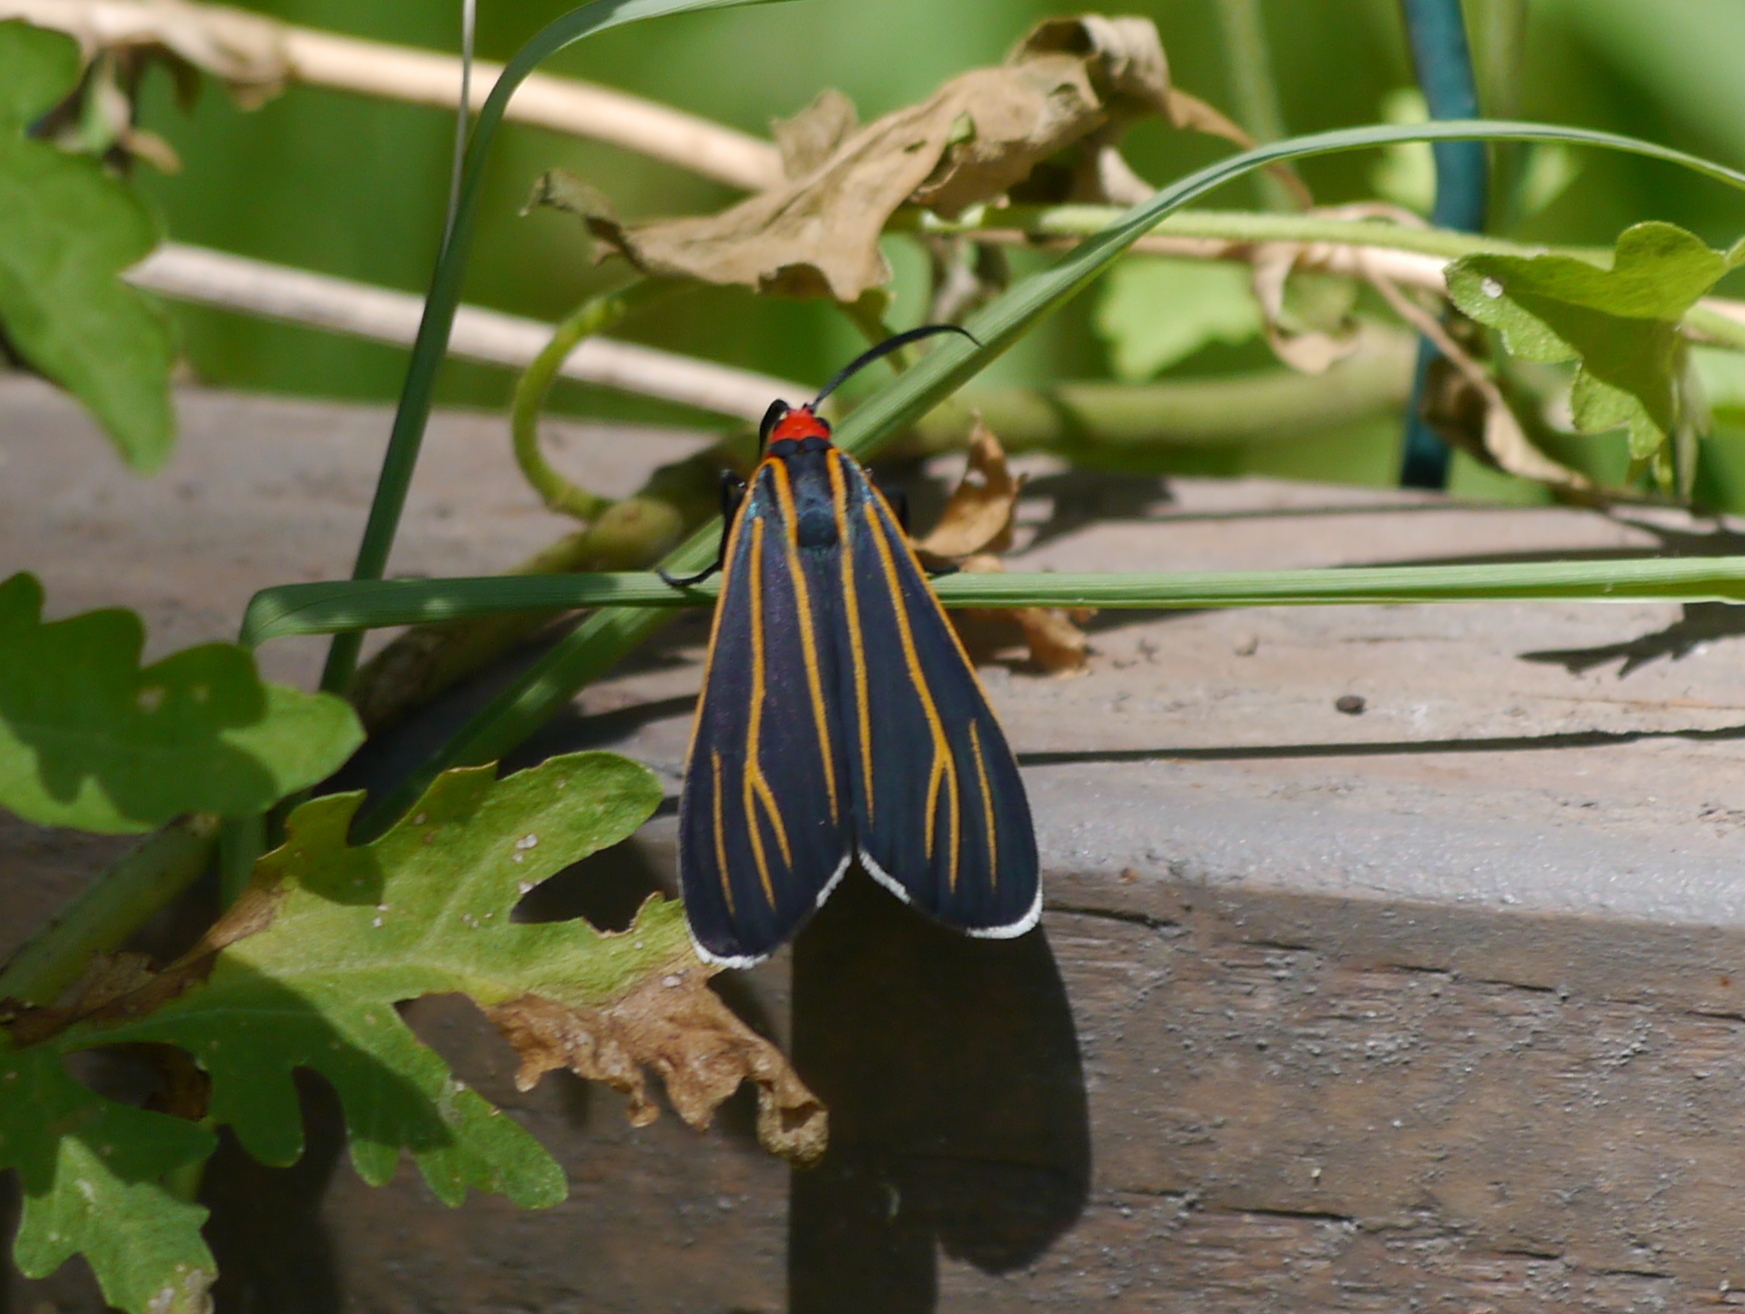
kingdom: Animalia
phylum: Arthropoda
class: Insecta
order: Lepidoptera
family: Erebidae
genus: Ctenucha
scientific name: Ctenucha venosa
